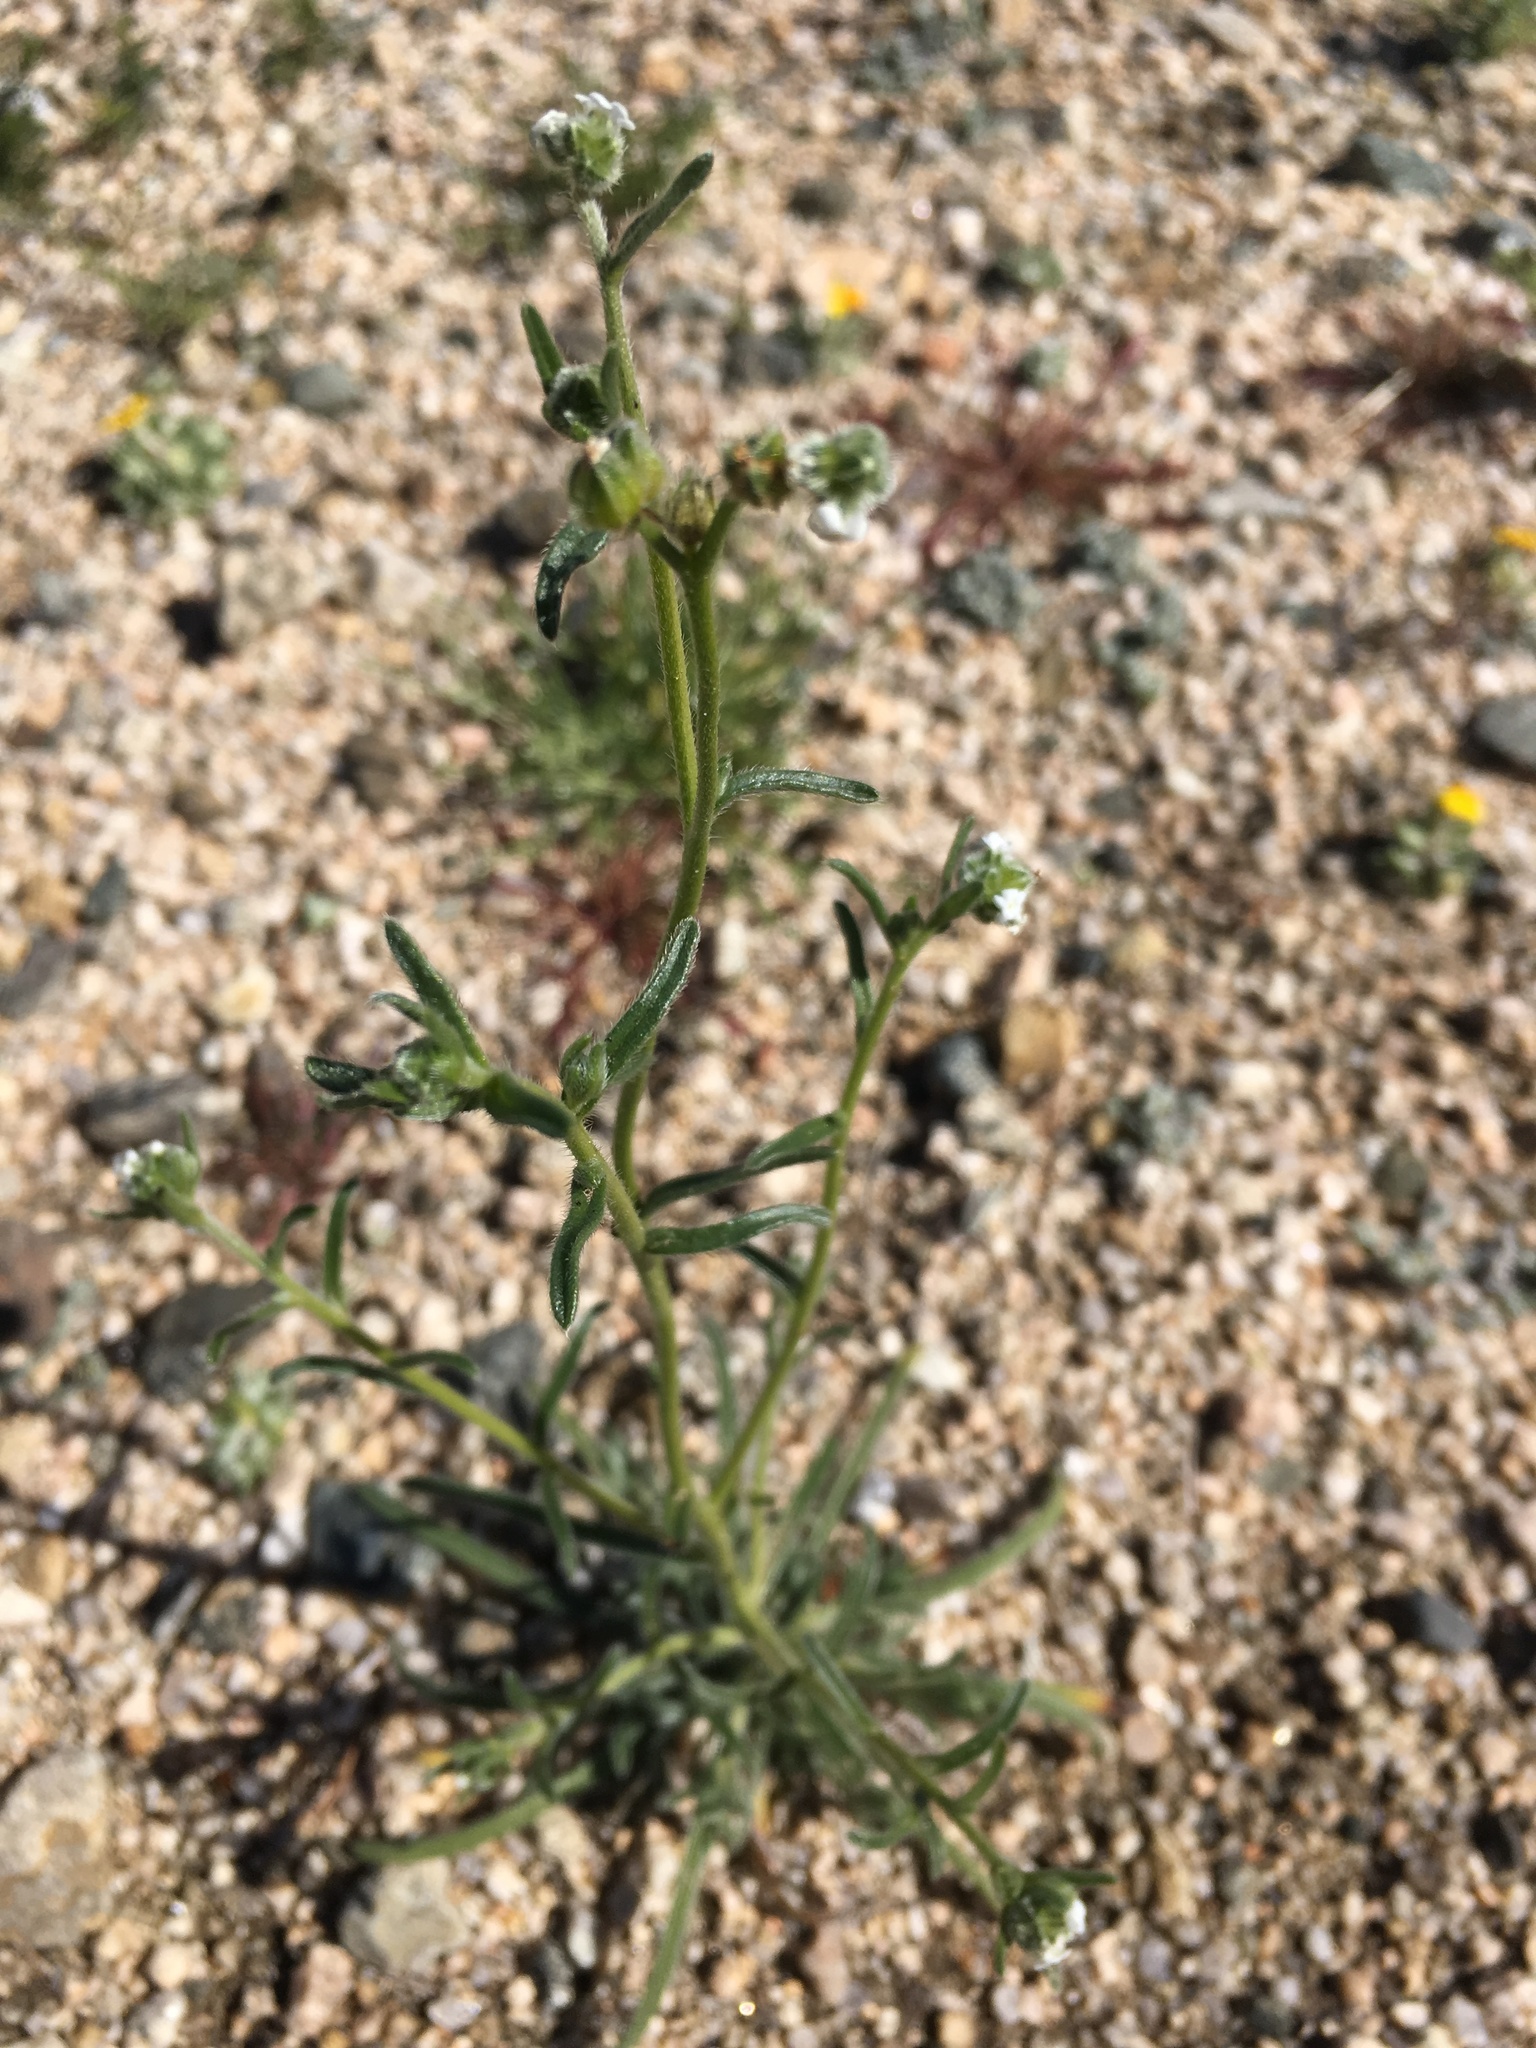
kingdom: Plantae
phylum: Tracheophyta
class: Magnoliopsida
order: Boraginales
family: Boraginaceae
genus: Cryptantha
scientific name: Cryptantha pterocarya
